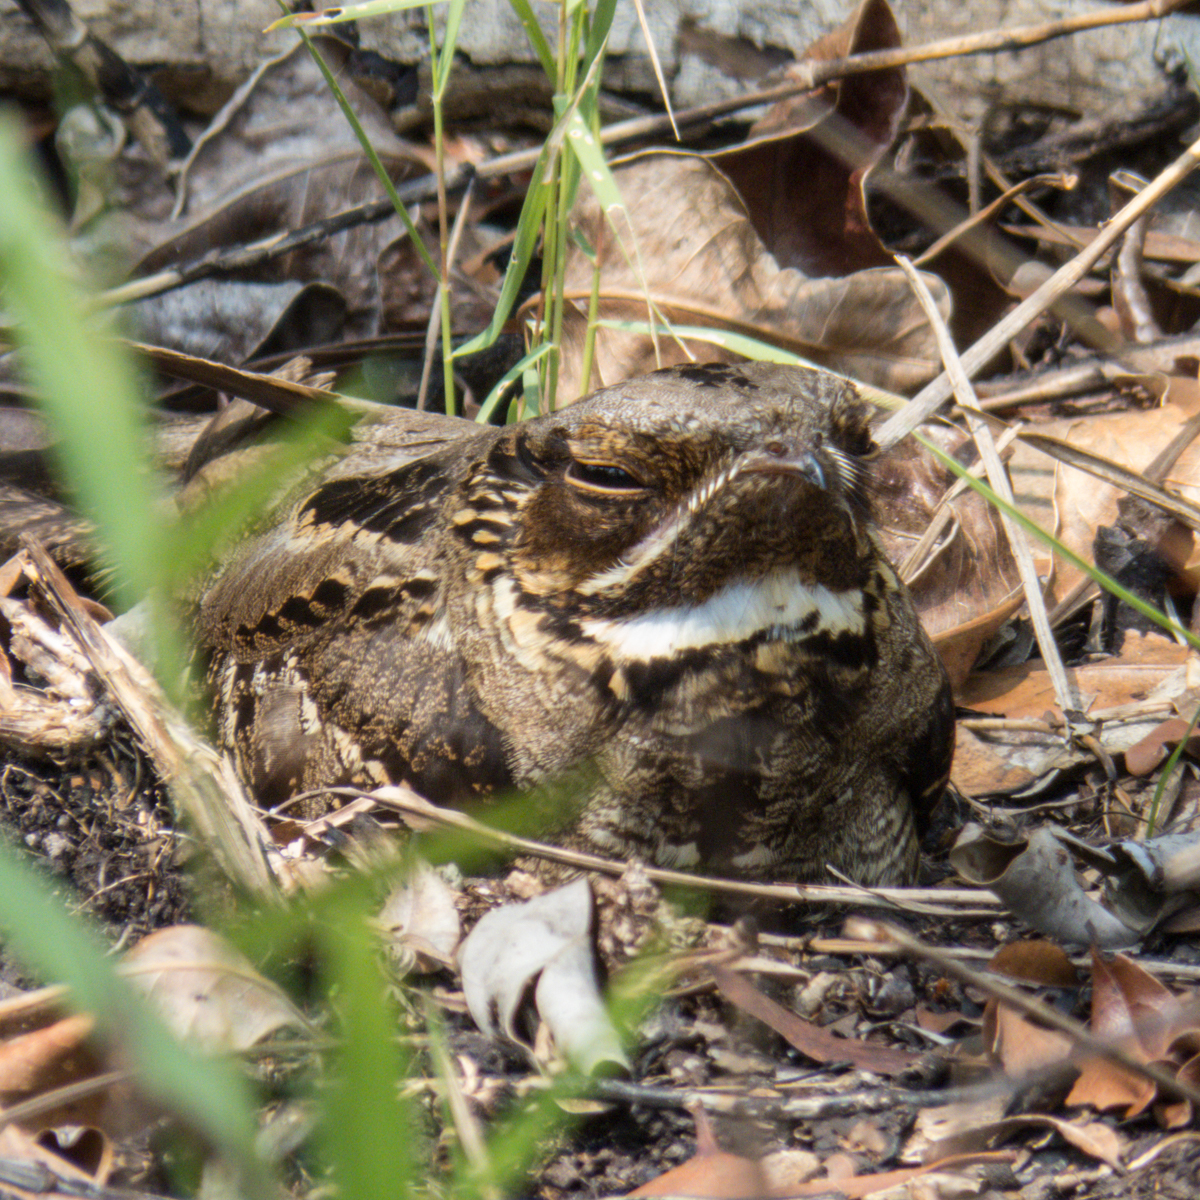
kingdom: Animalia
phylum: Chordata
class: Aves
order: Caprimulgiformes
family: Caprimulgidae
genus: Caprimulgus
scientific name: Caprimulgus macrurus
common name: Large-tailed nightjar
